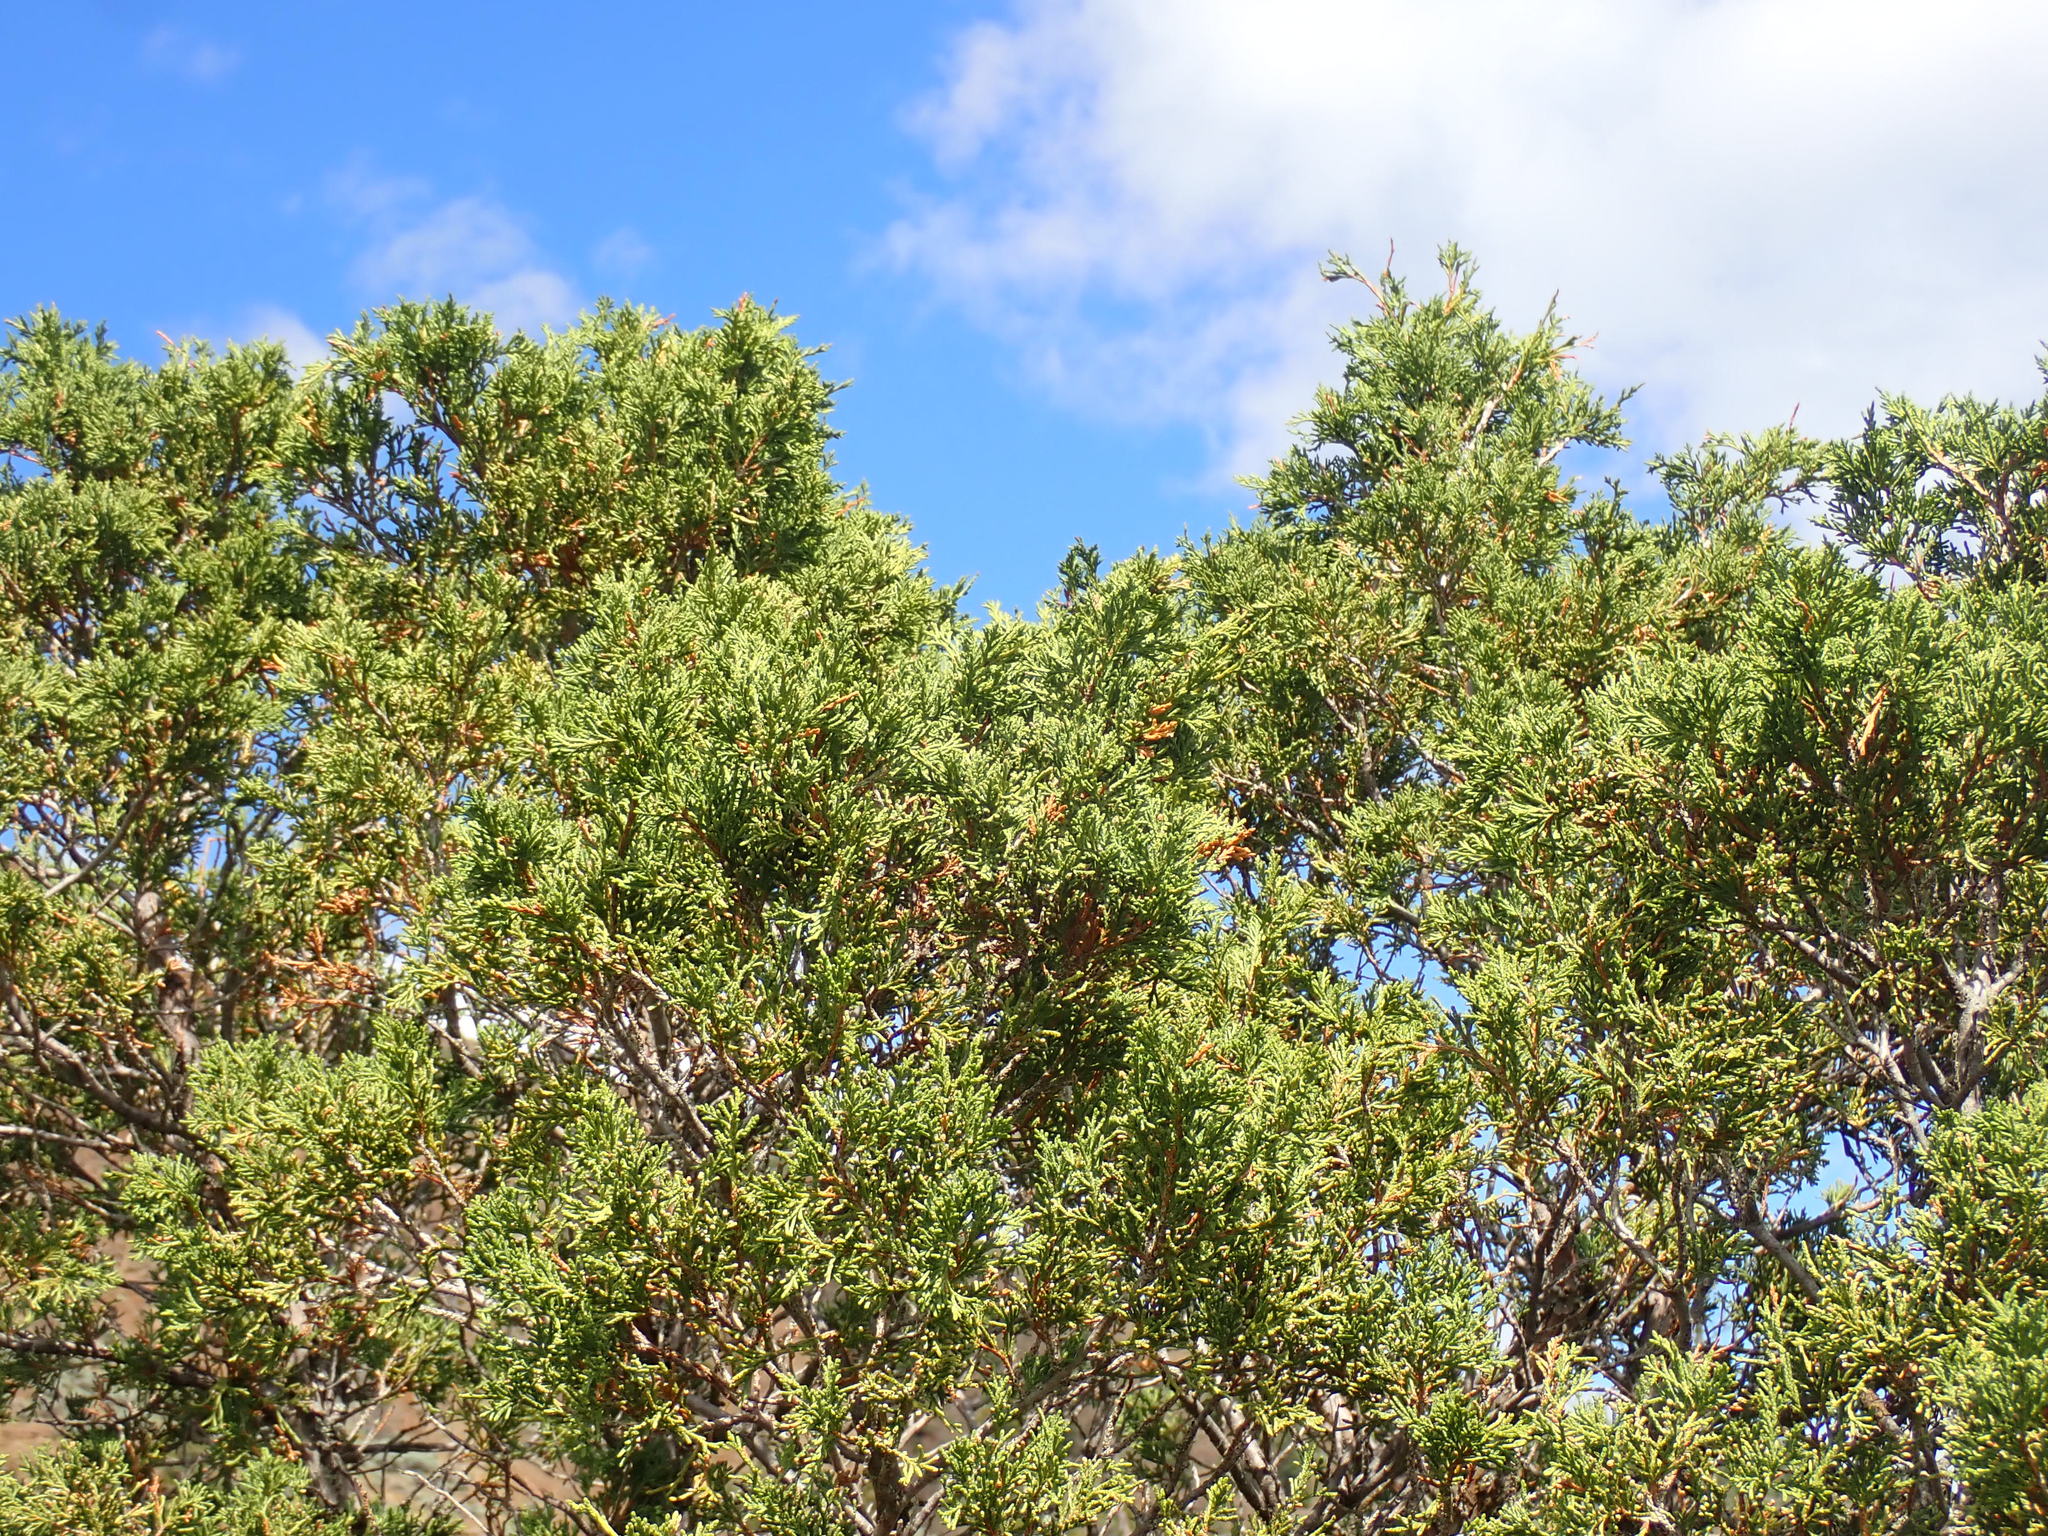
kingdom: Plantae
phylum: Tracheophyta
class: Pinopsida
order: Pinales
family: Cupressaceae
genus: Juniperus
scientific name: Juniperus scopulorum
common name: Rocky mountain juniper
